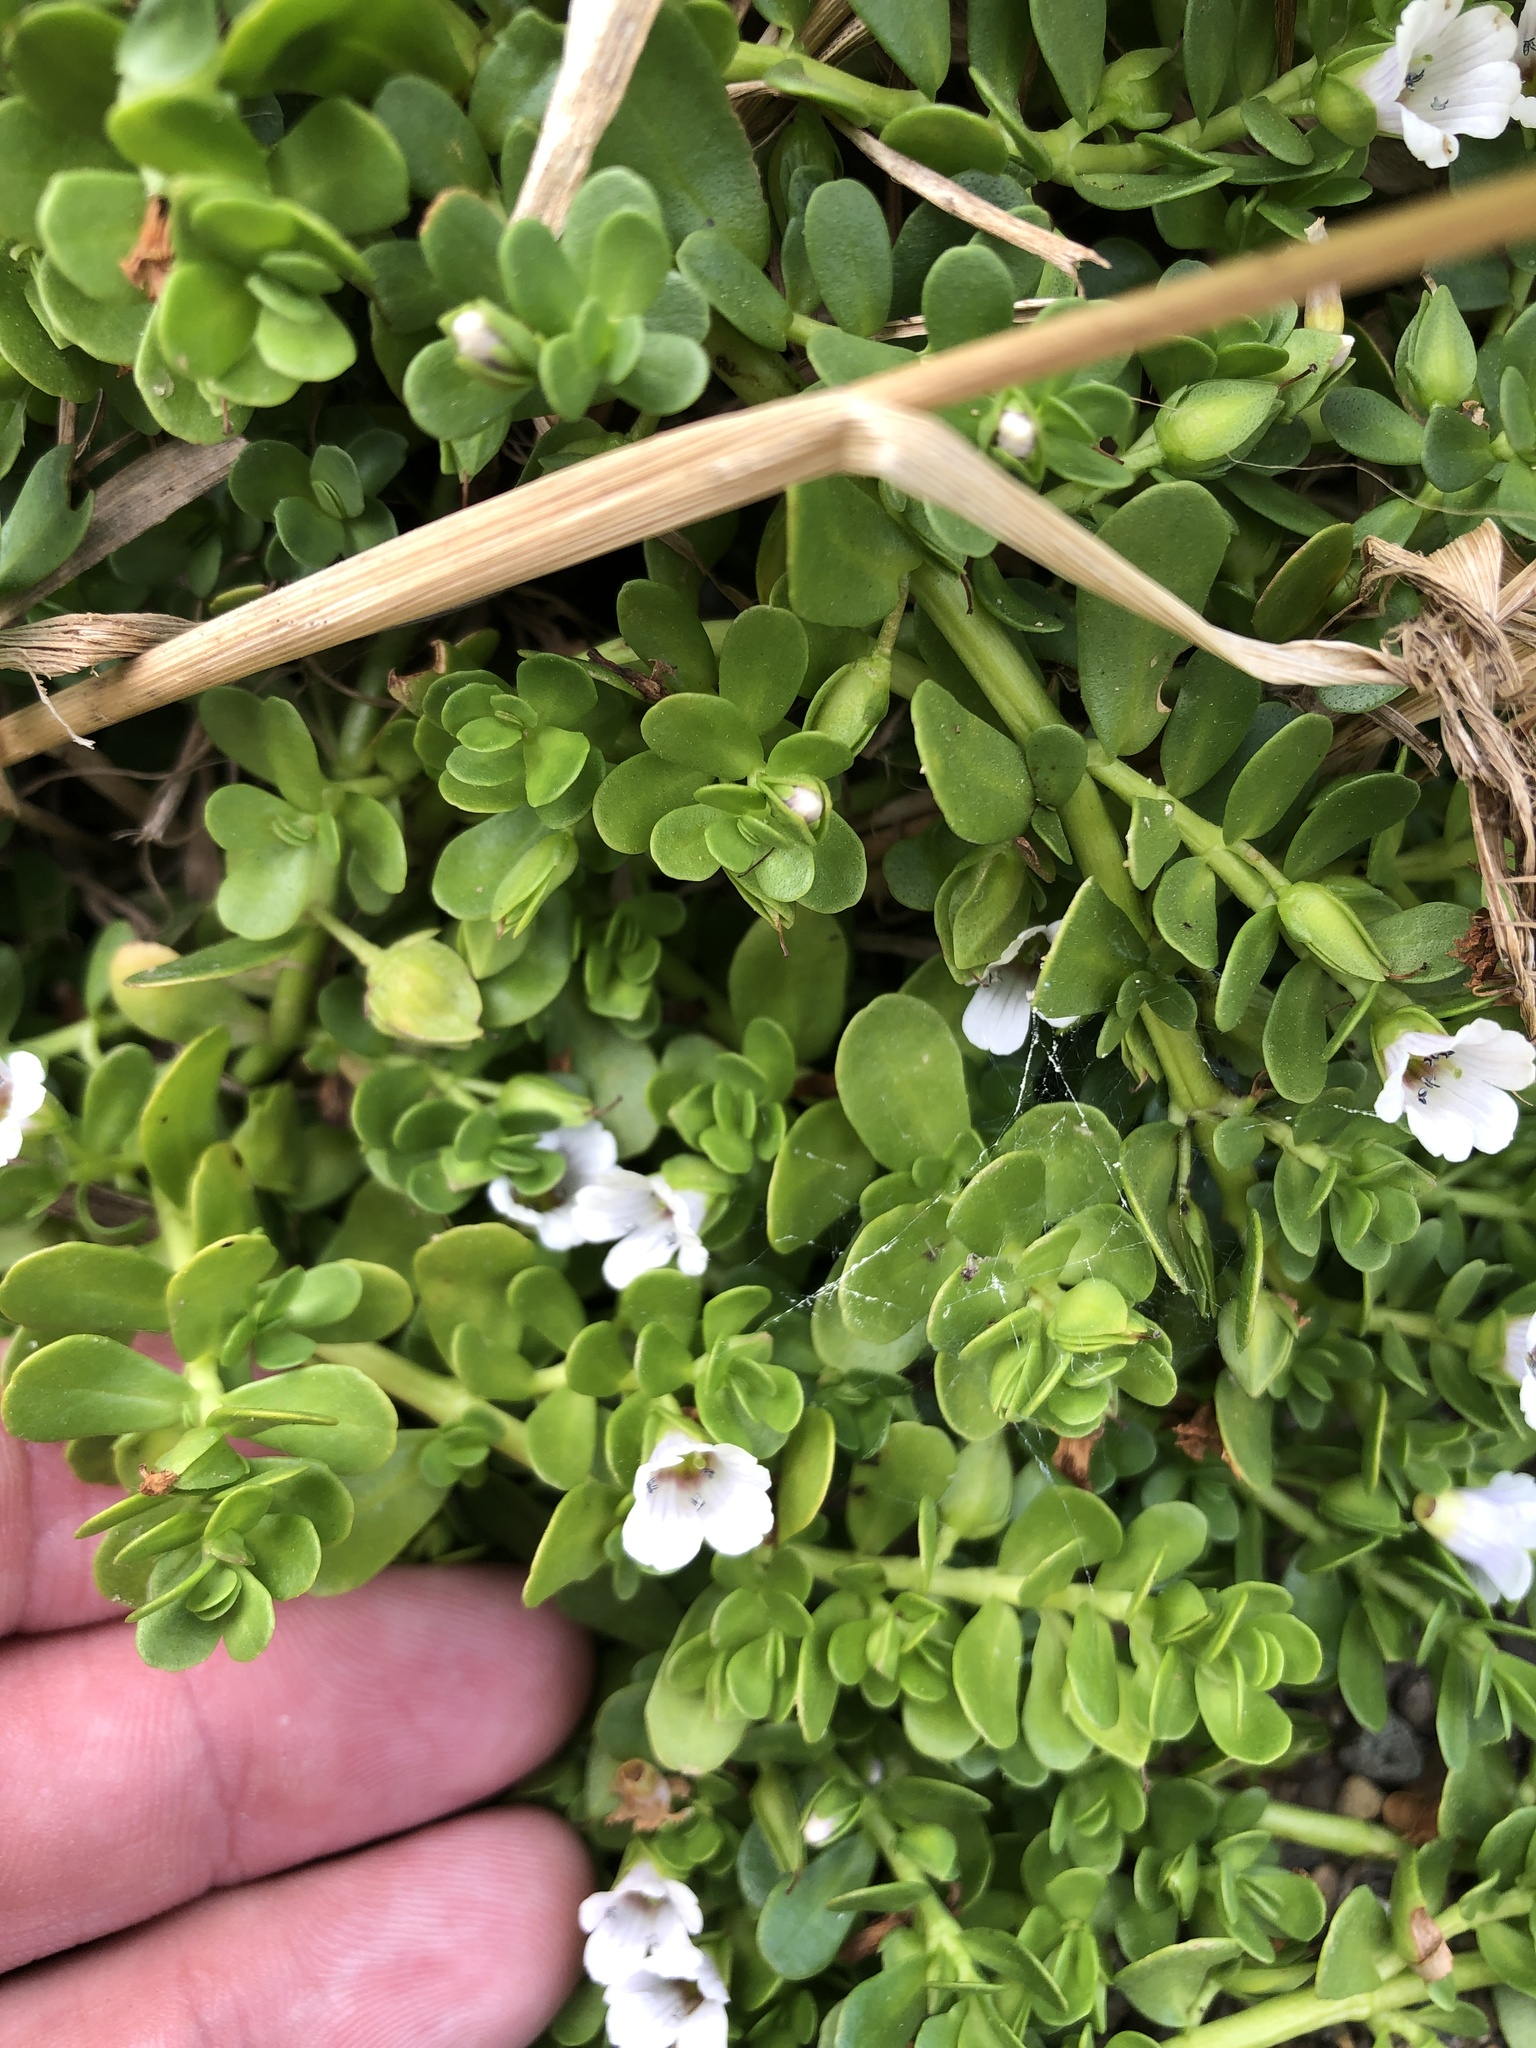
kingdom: Plantae
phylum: Tracheophyta
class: Magnoliopsida
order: Lamiales
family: Plantaginaceae
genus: Bacopa
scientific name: Bacopa monnieri
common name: Indian-pennywort
